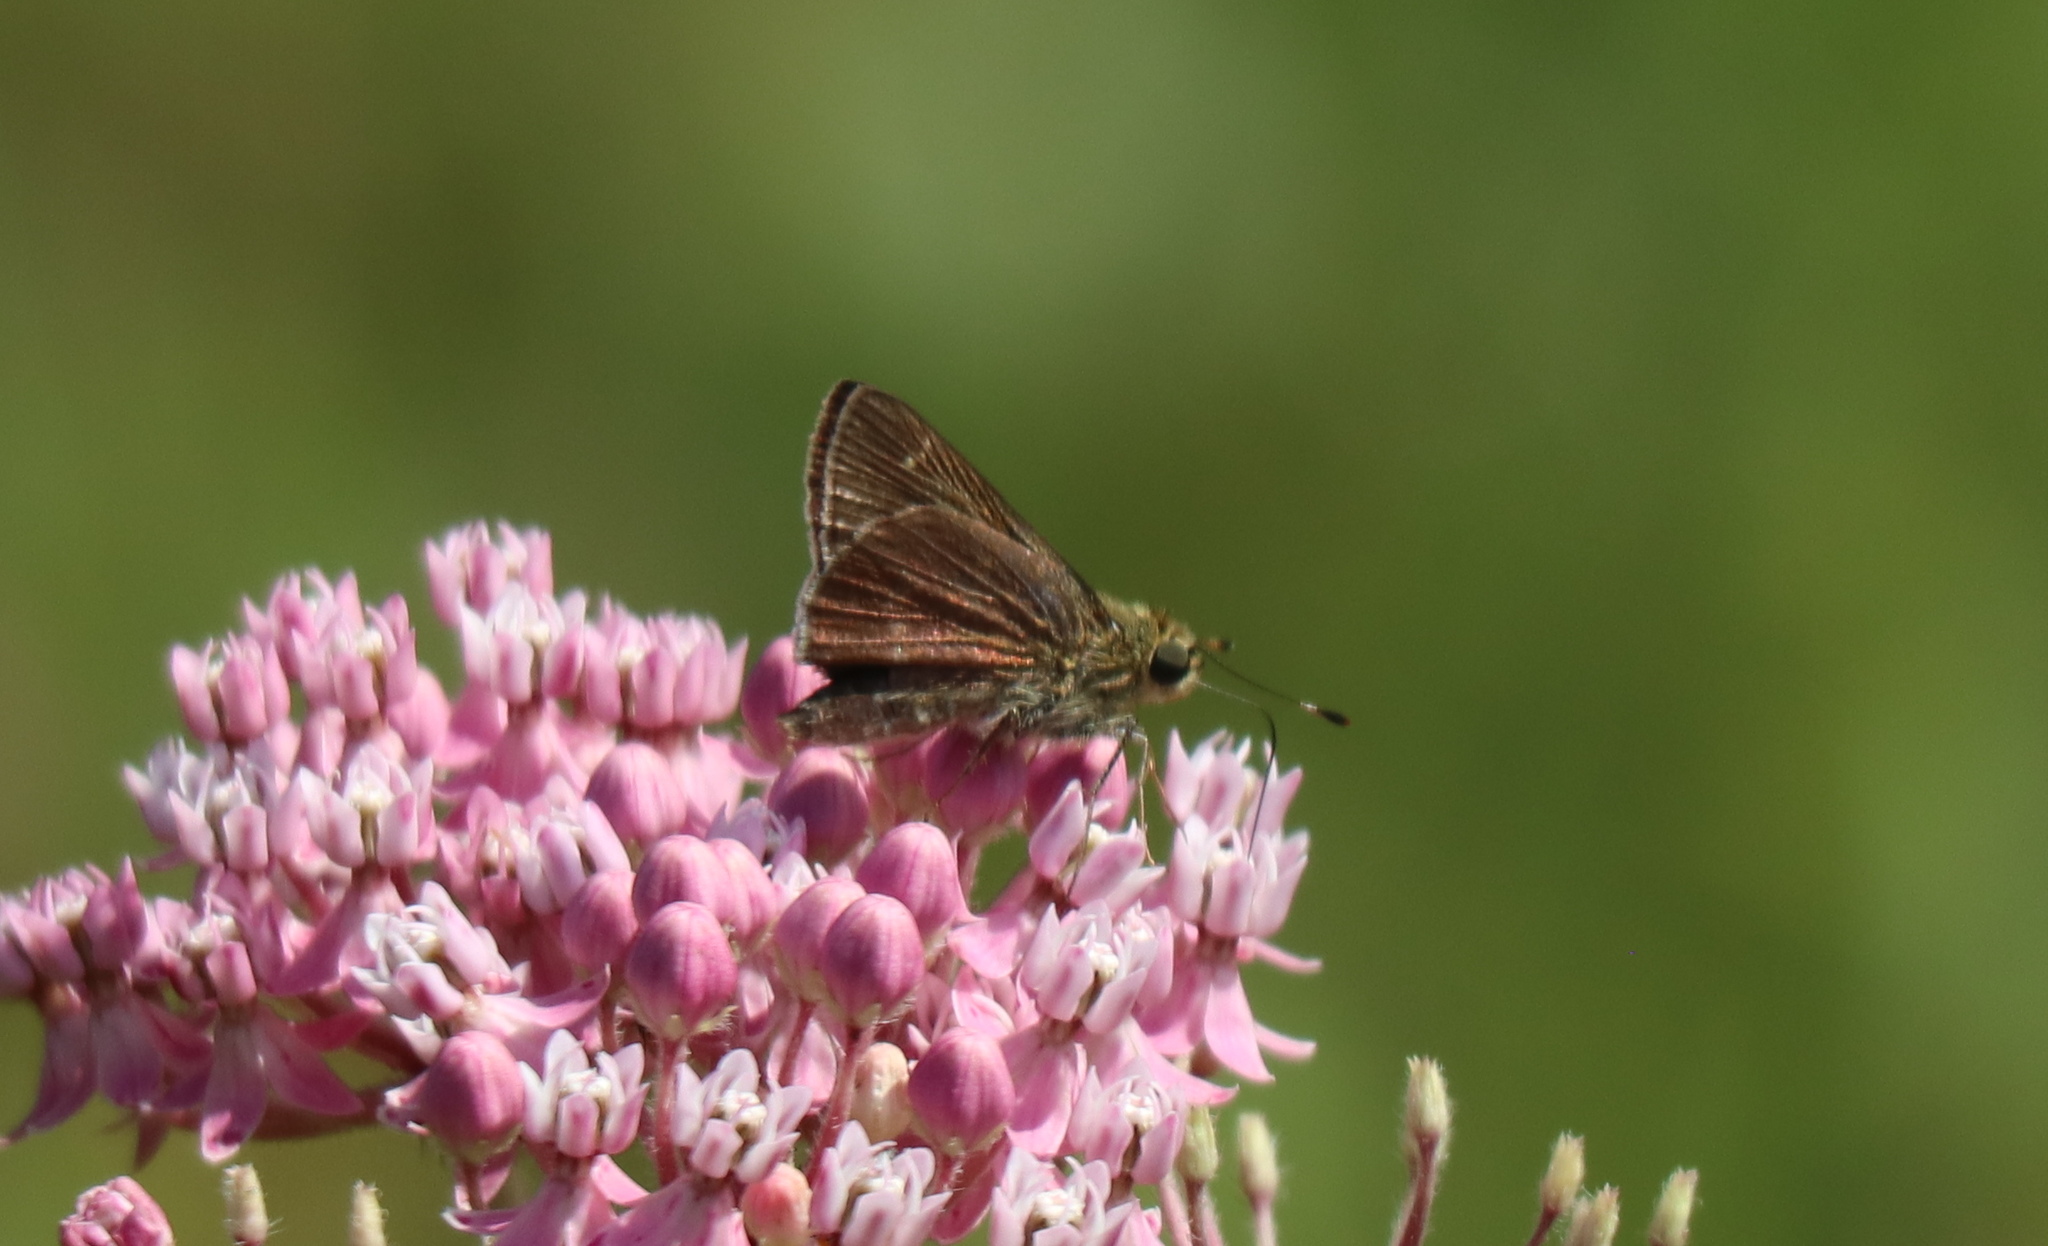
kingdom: Animalia
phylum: Arthropoda
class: Insecta
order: Lepidoptera
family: Hesperiidae
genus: Vernia
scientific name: Vernia verna
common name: Little glassywing
